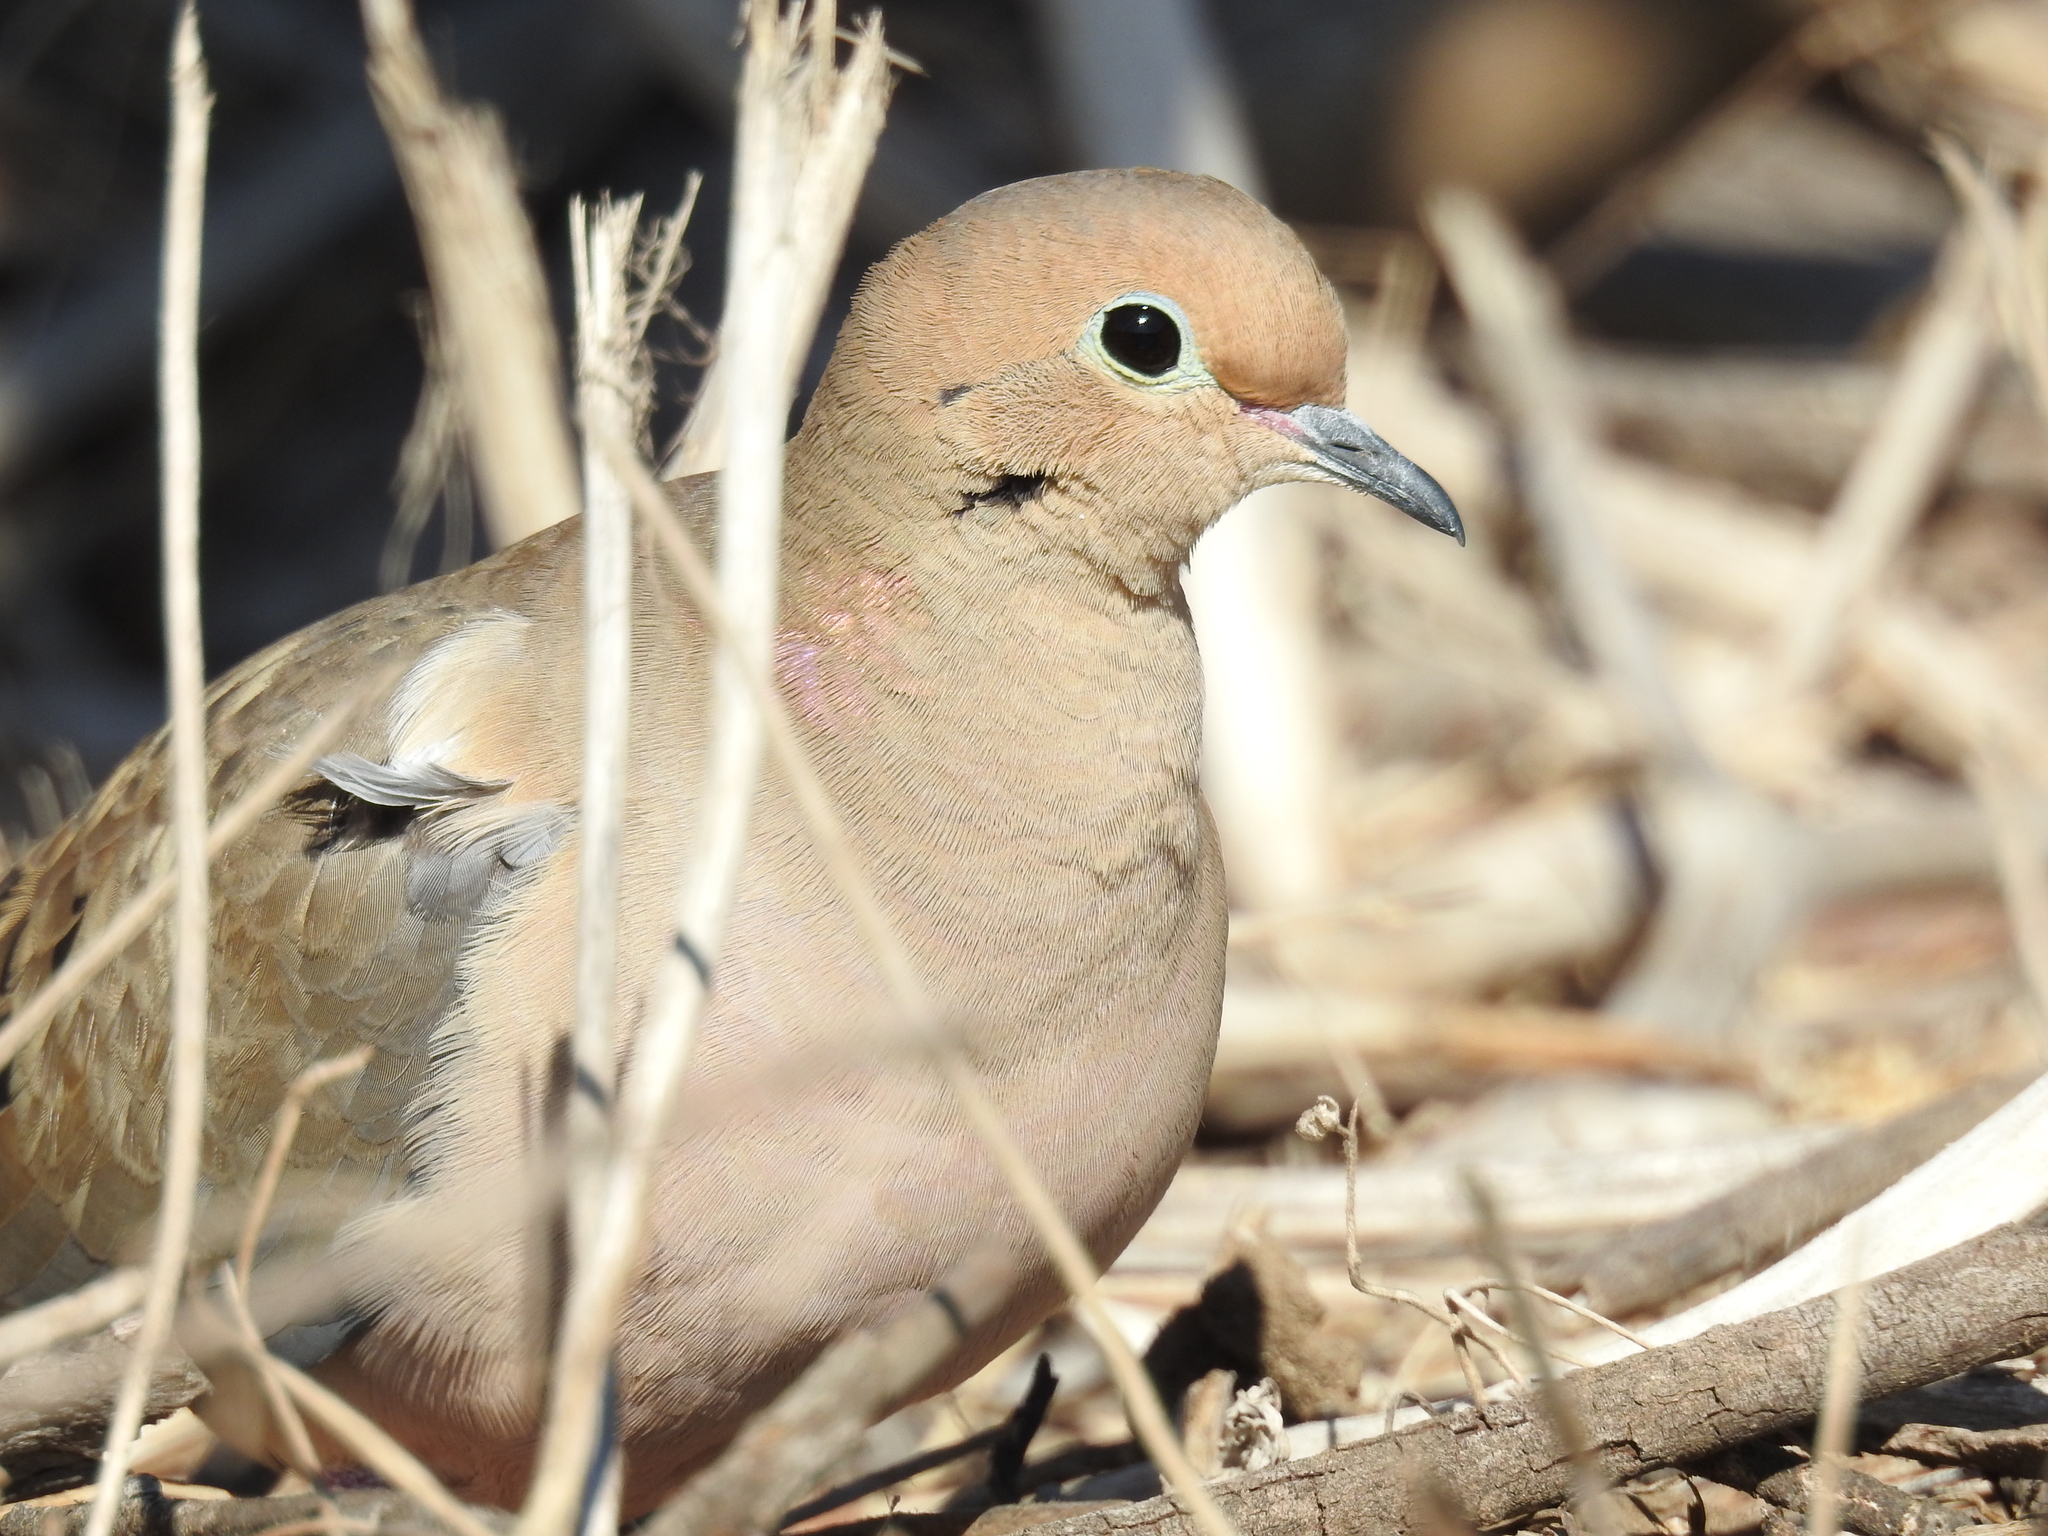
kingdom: Animalia
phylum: Chordata
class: Aves
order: Columbiformes
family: Columbidae
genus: Zenaida
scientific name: Zenaida macroura
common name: Mourning dove
